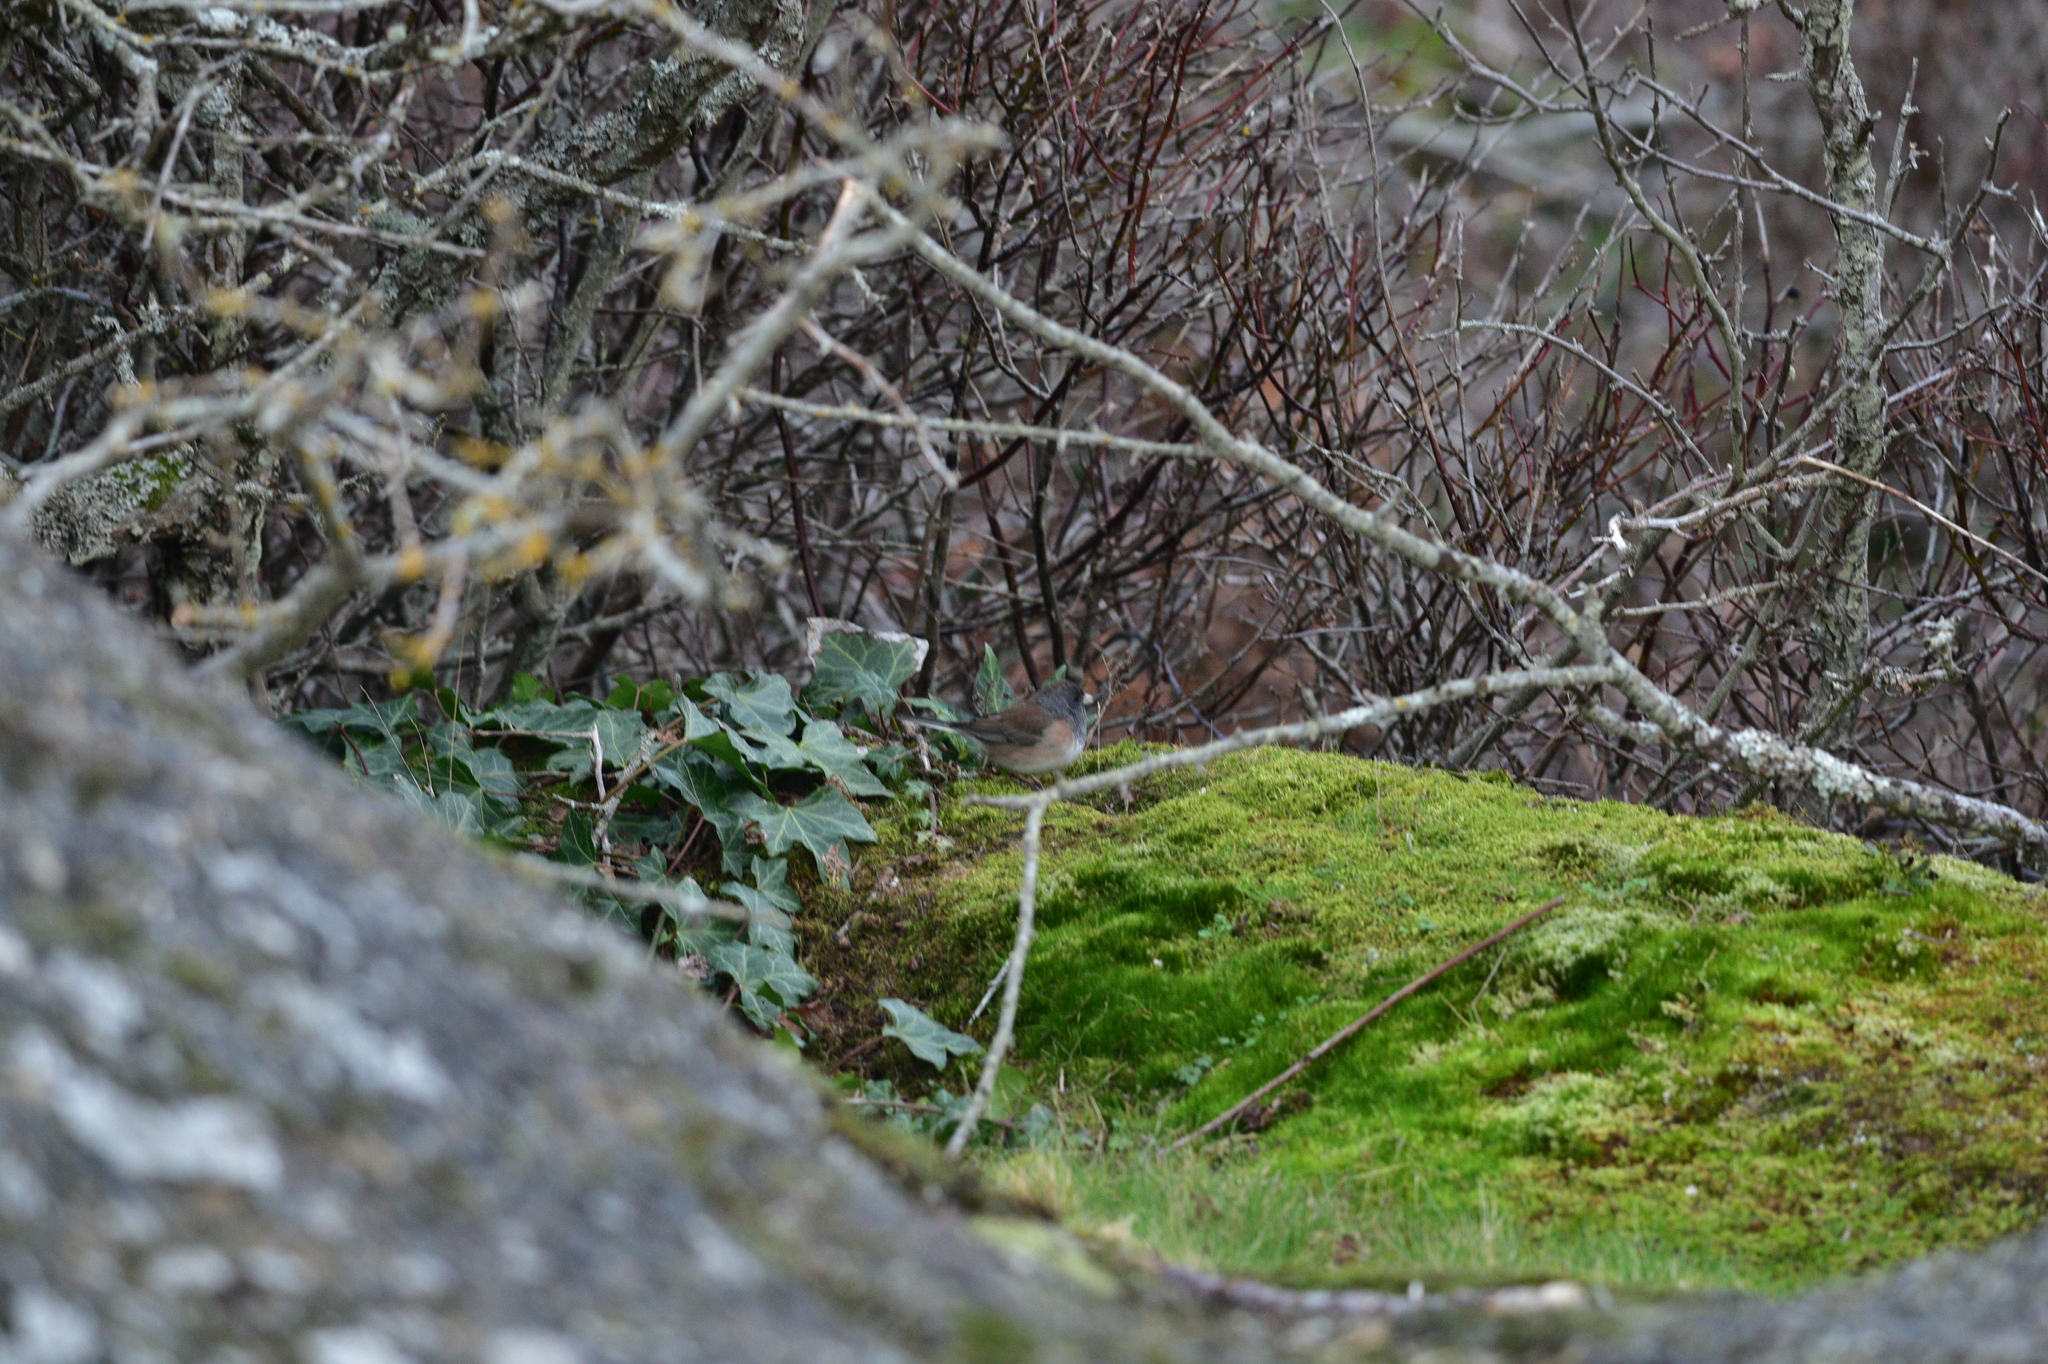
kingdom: Animalia
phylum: Chordata
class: Aves
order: Passeriformes
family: Passerellidae
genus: Junco
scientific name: Junco hyemalis
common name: Dark-eyed junco
